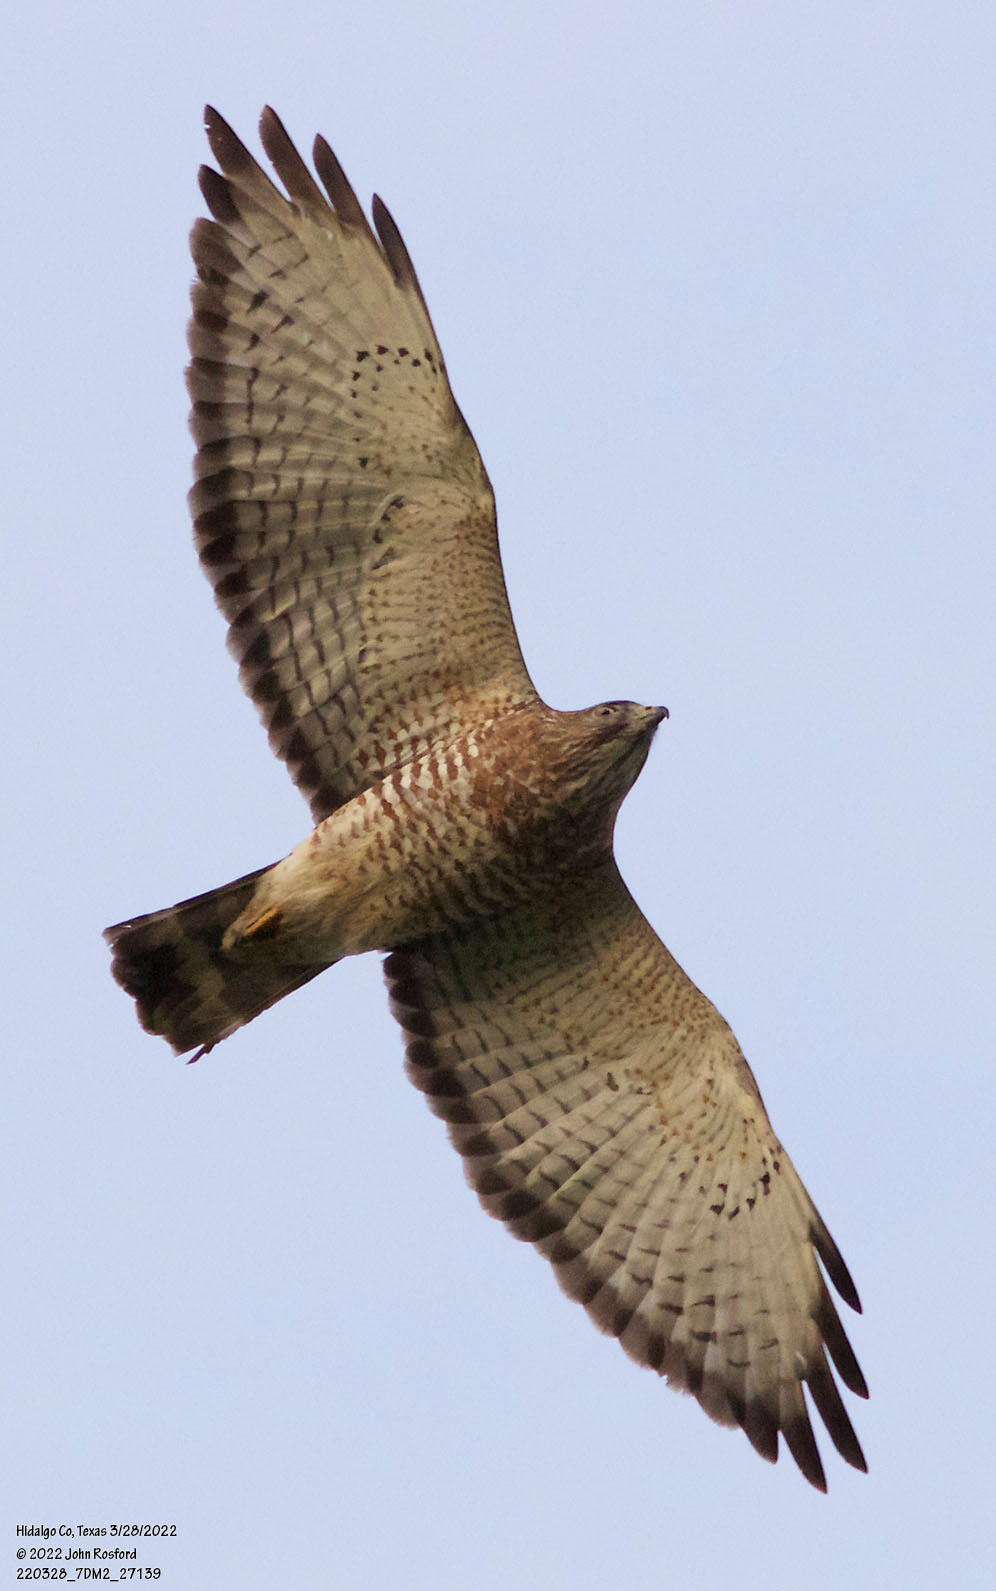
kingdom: Animalia
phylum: Chordata
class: Aves
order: Accipitriformes
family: Accipitridae
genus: Buteo
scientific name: Buteo platypterus
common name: Broad-winged hawk
